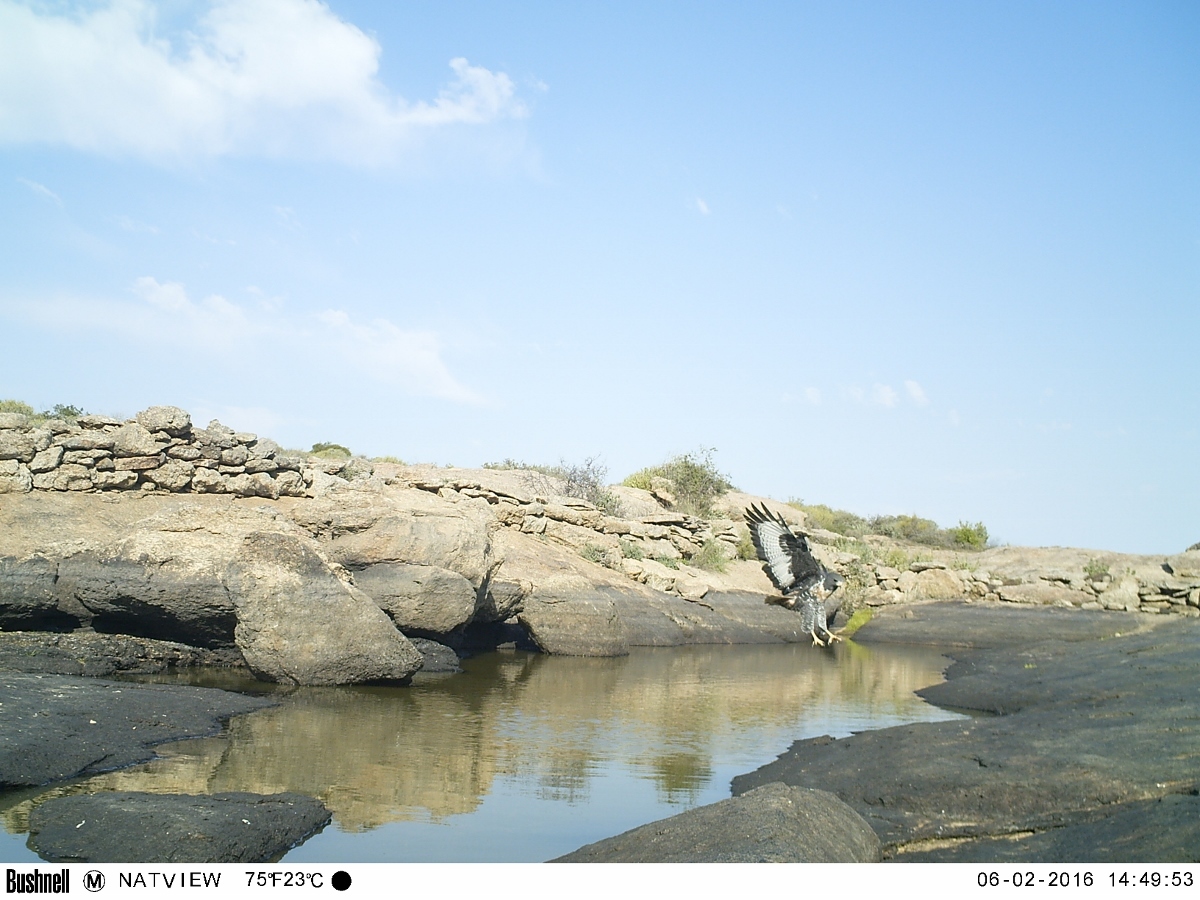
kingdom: Animalia
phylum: Chordata
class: Aves
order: Accipitriformes
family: Accipitridae
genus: Buteo
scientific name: Buteo rufofuscus
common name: Jackal buzzard
